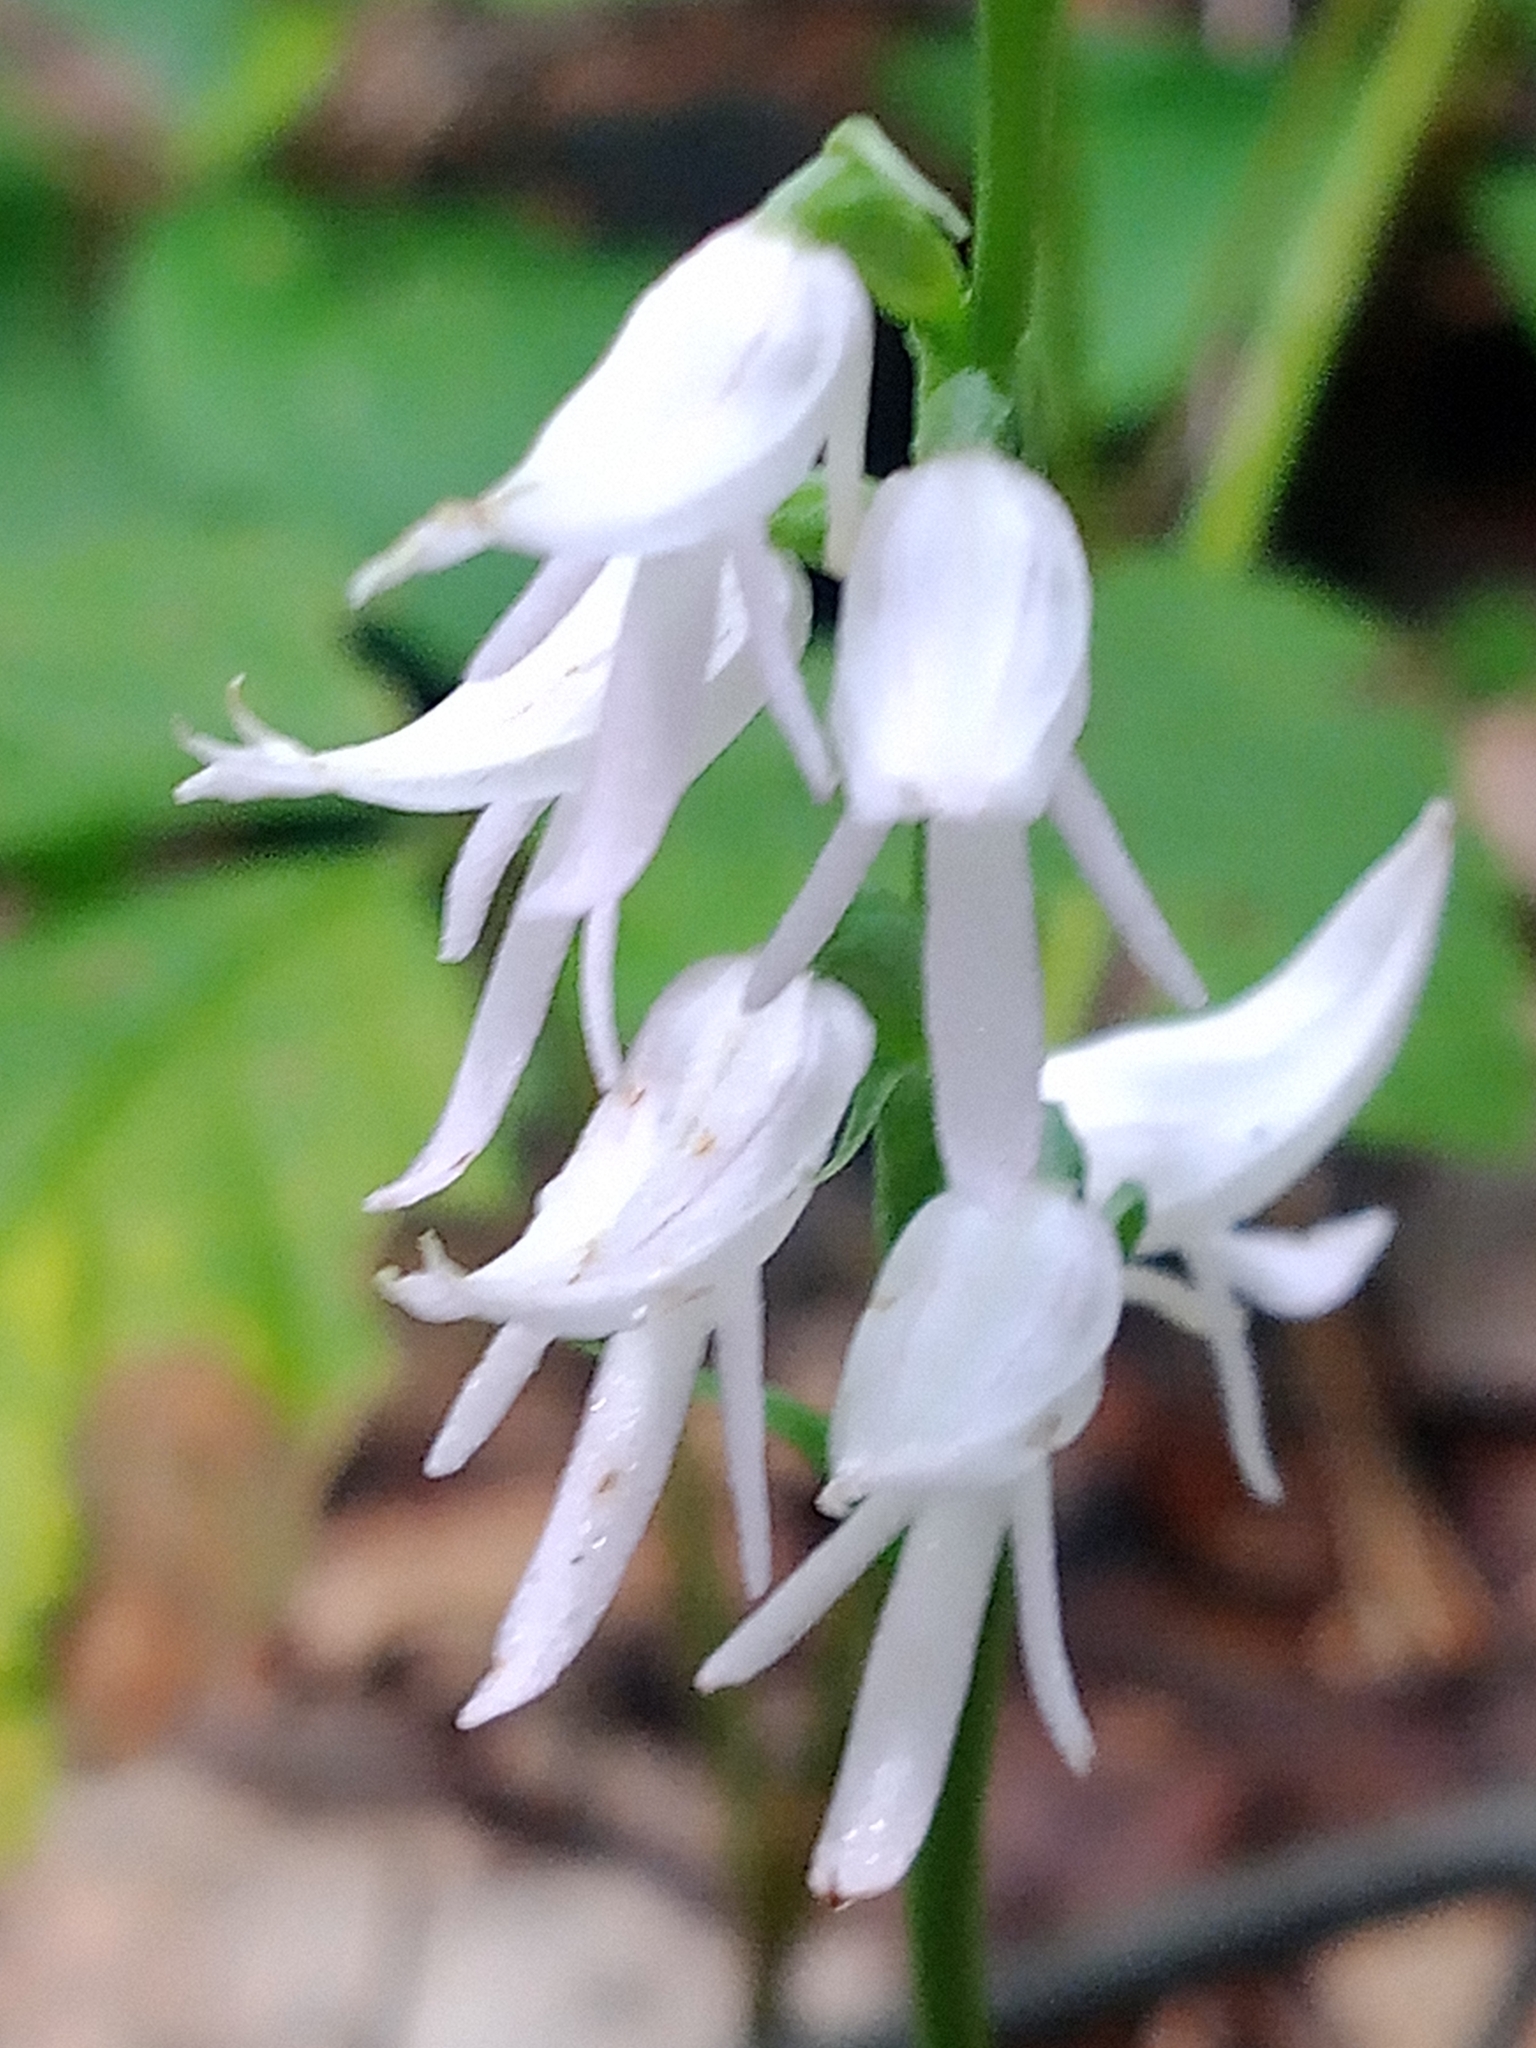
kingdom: Plantae
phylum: Tracheophyta
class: Liliopsida
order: Asparagales
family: Orchidaceae
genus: Hemipilia
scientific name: Hemipilia cucullata
